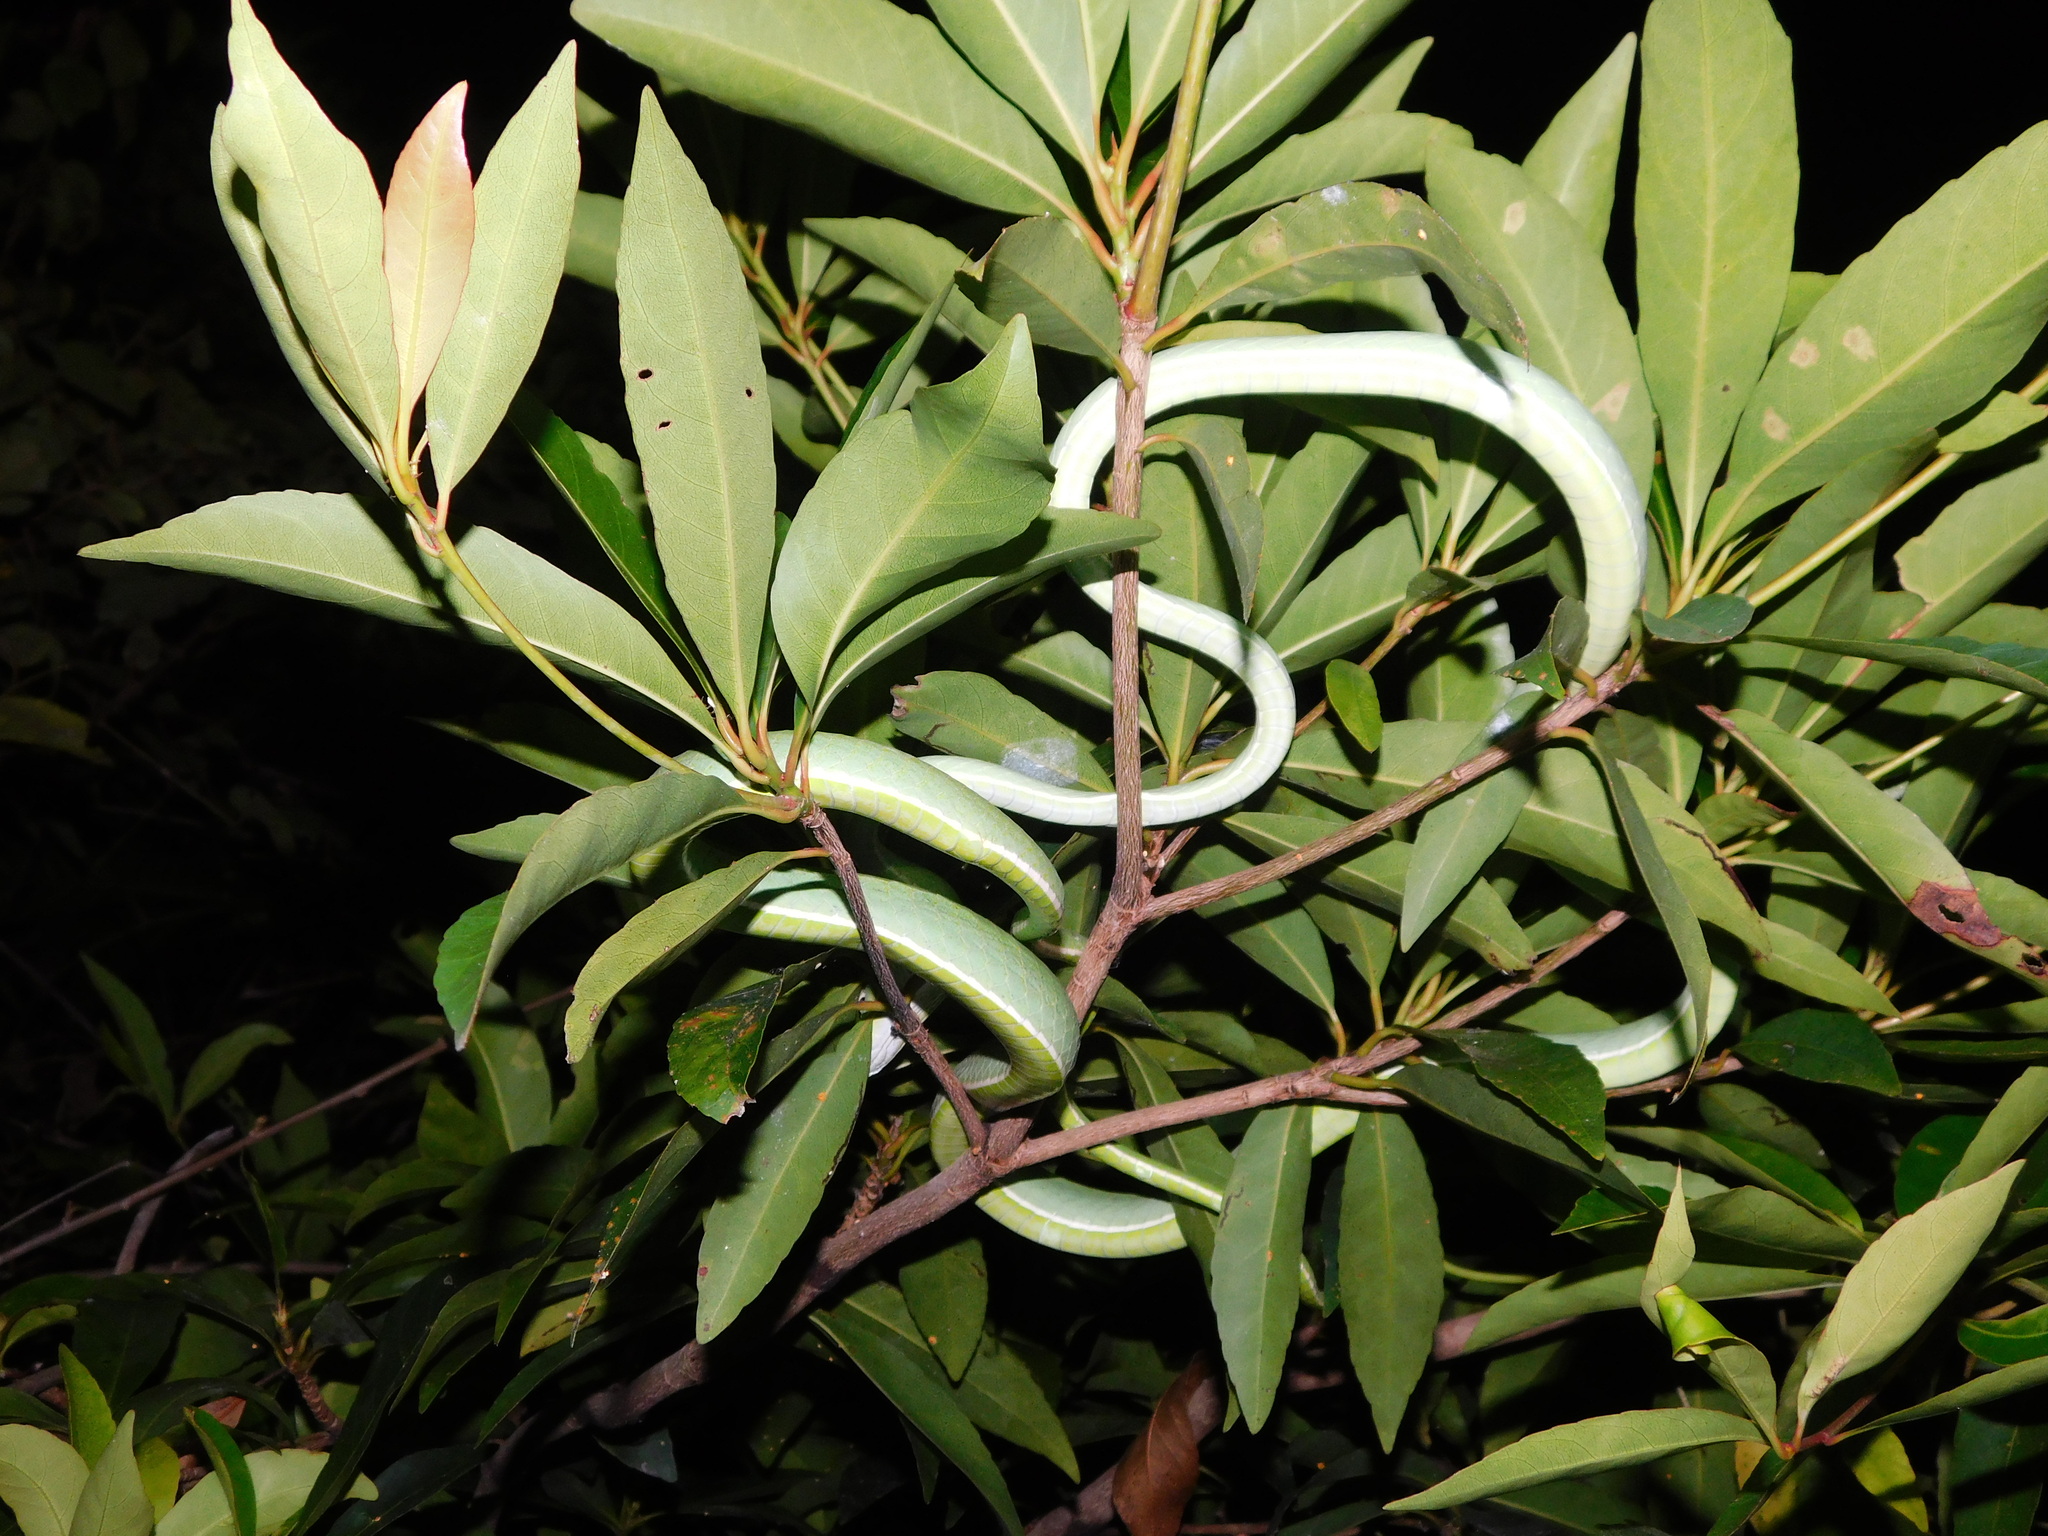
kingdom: Animalia
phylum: Chordata
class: Squamata
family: Colubridae
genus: Ahaetulla
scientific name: Ahaetulla prasina
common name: Oriental whip snake
